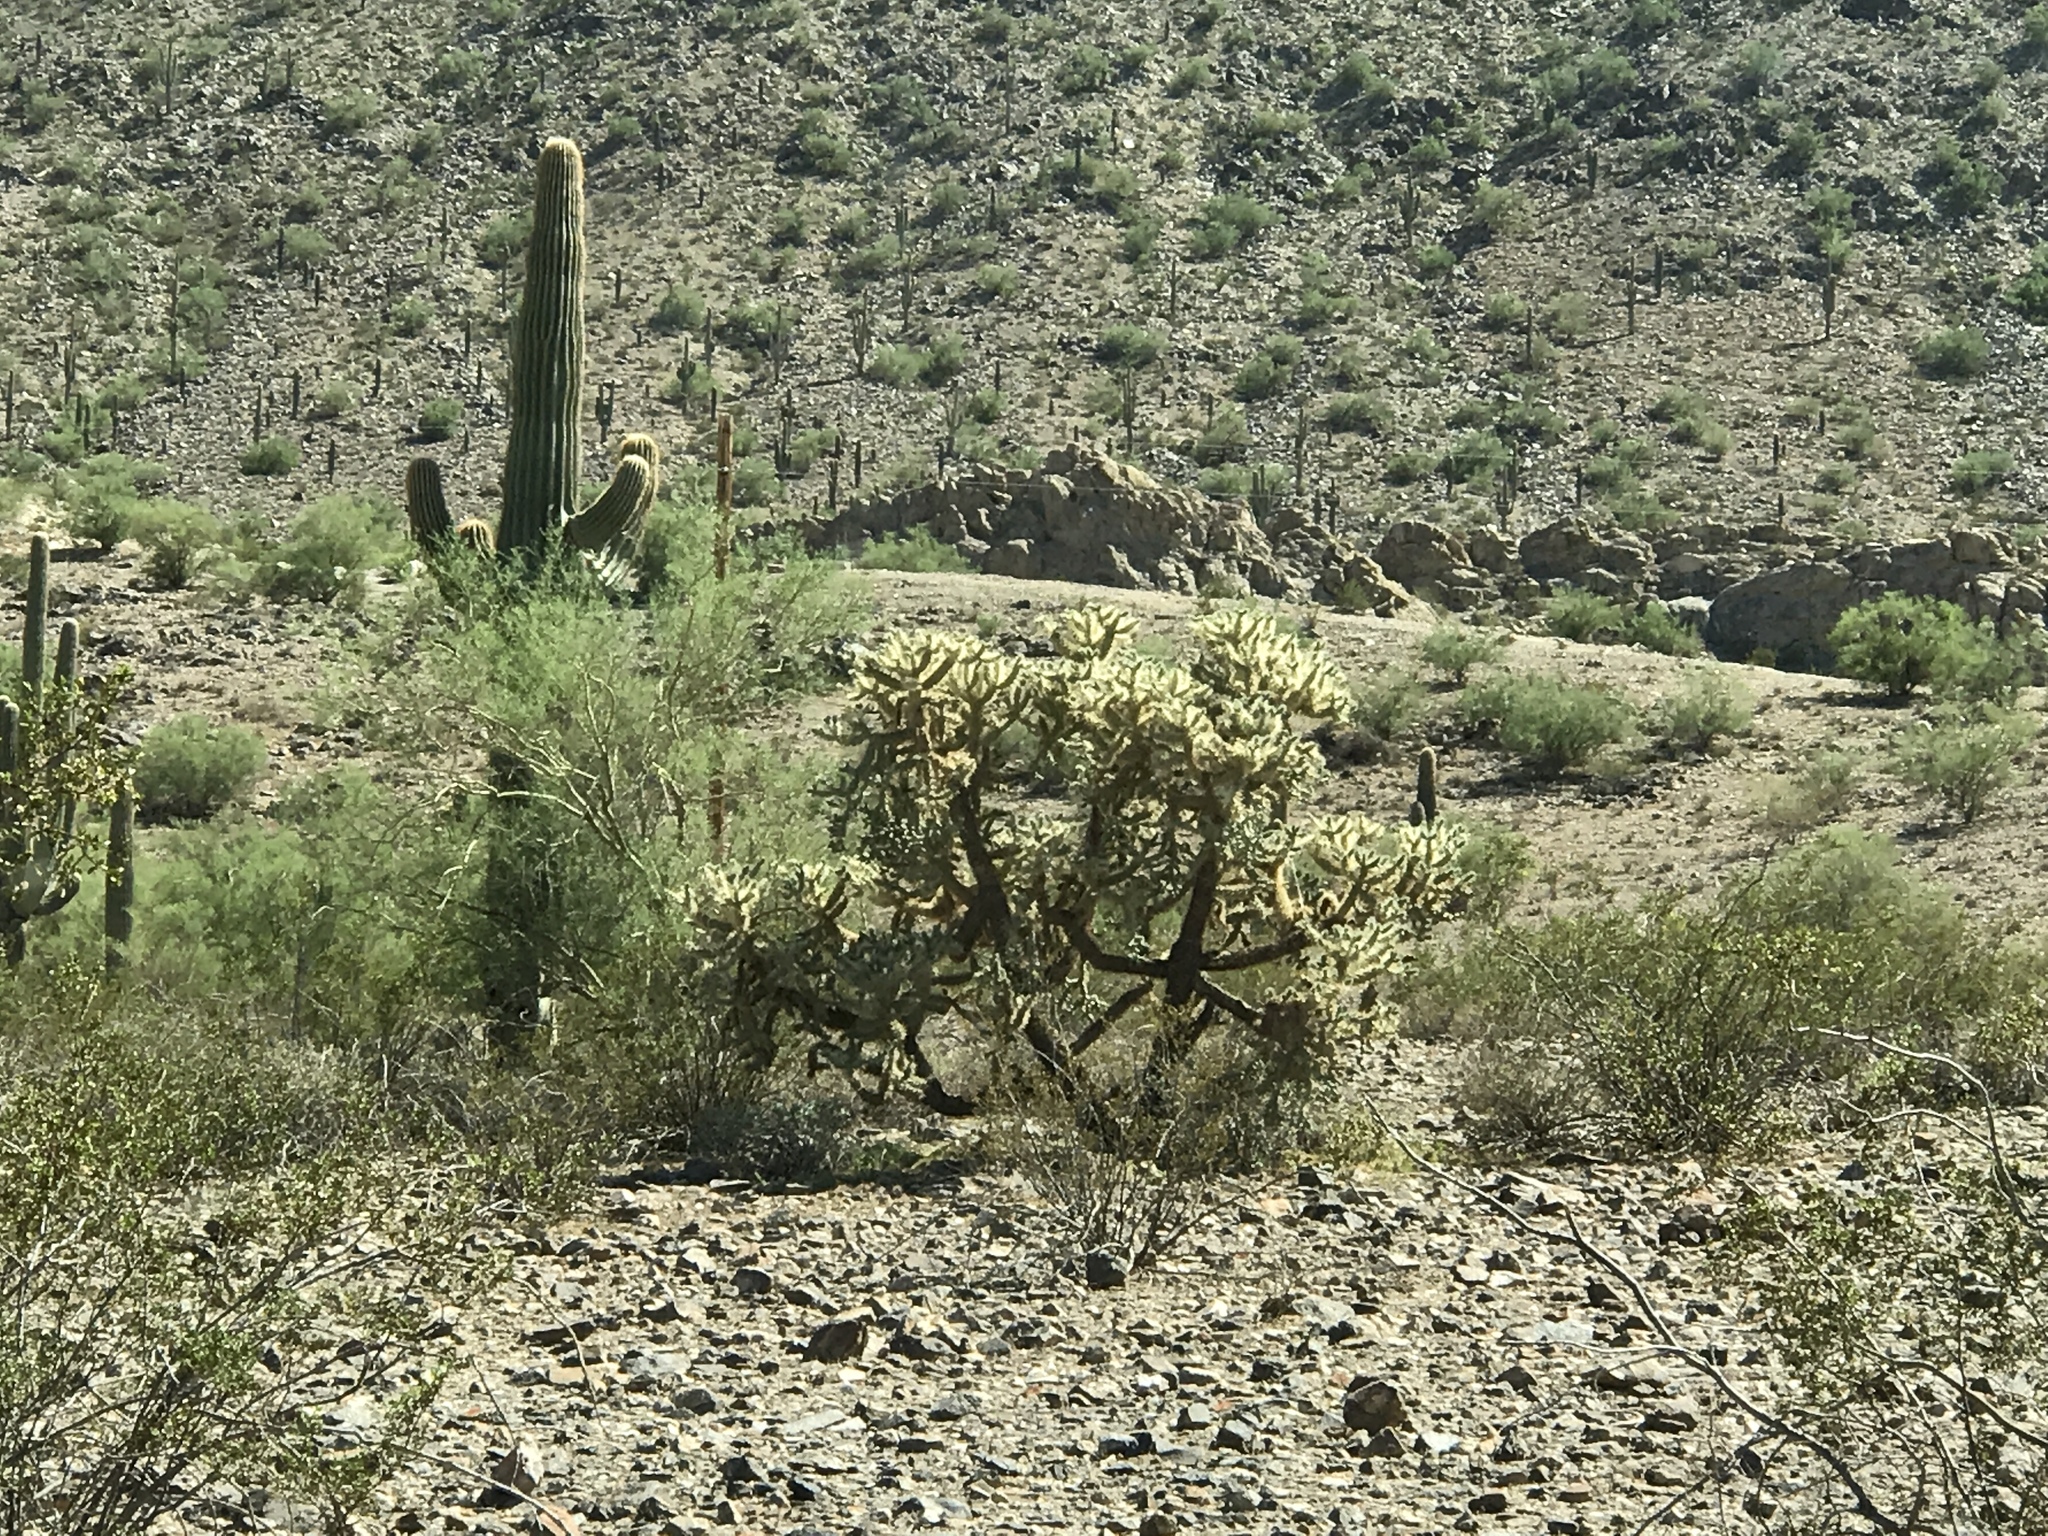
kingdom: Plantae
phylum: Tracheophyta
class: Magnoliopsida
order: Caryophyllales
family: Cactaceae
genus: Cylindropuntia
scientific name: Cylindropuntia fosbergii
